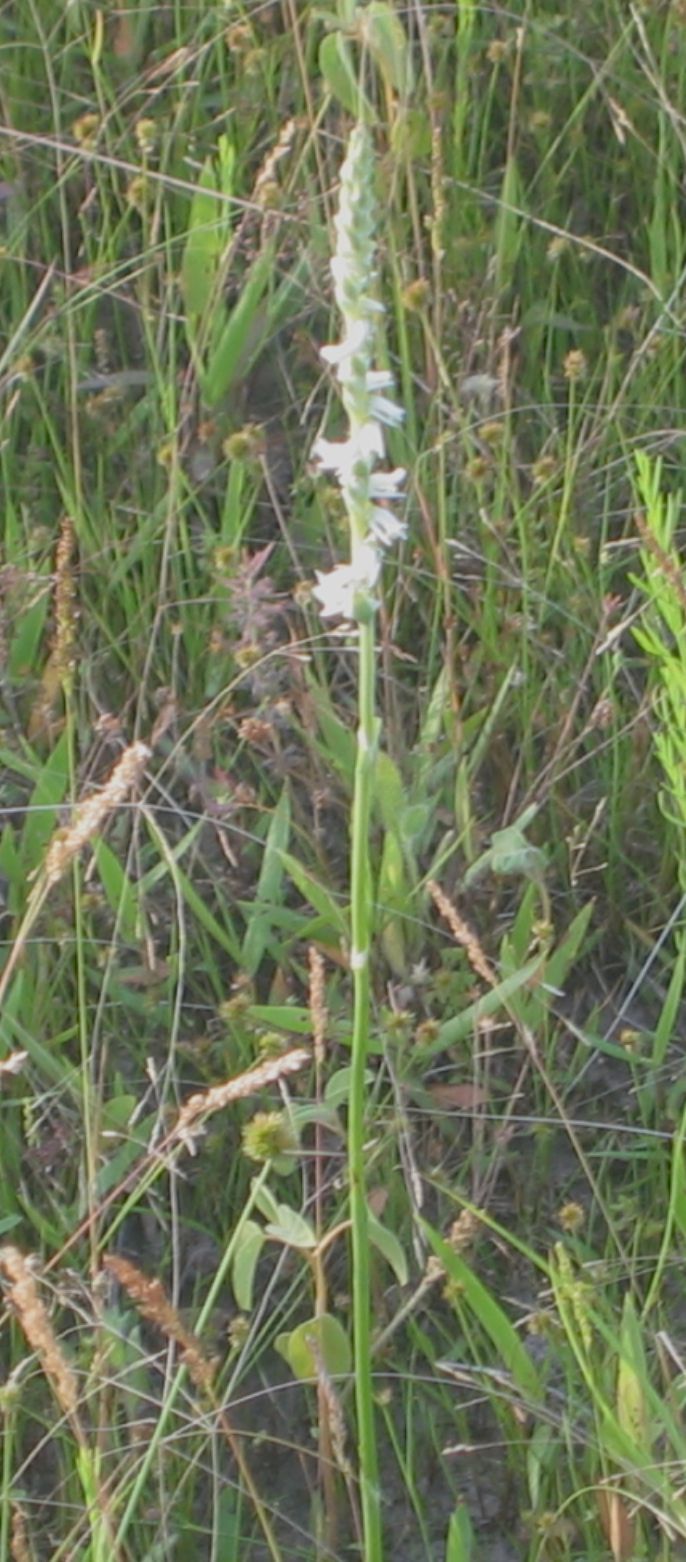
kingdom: Plantae
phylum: Tracheophyta
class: Liliopsida
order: Asparagales
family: Orchidaceae
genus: Spiranthes
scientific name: Spiranthes vernalis
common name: Spring ladies'-tresses
